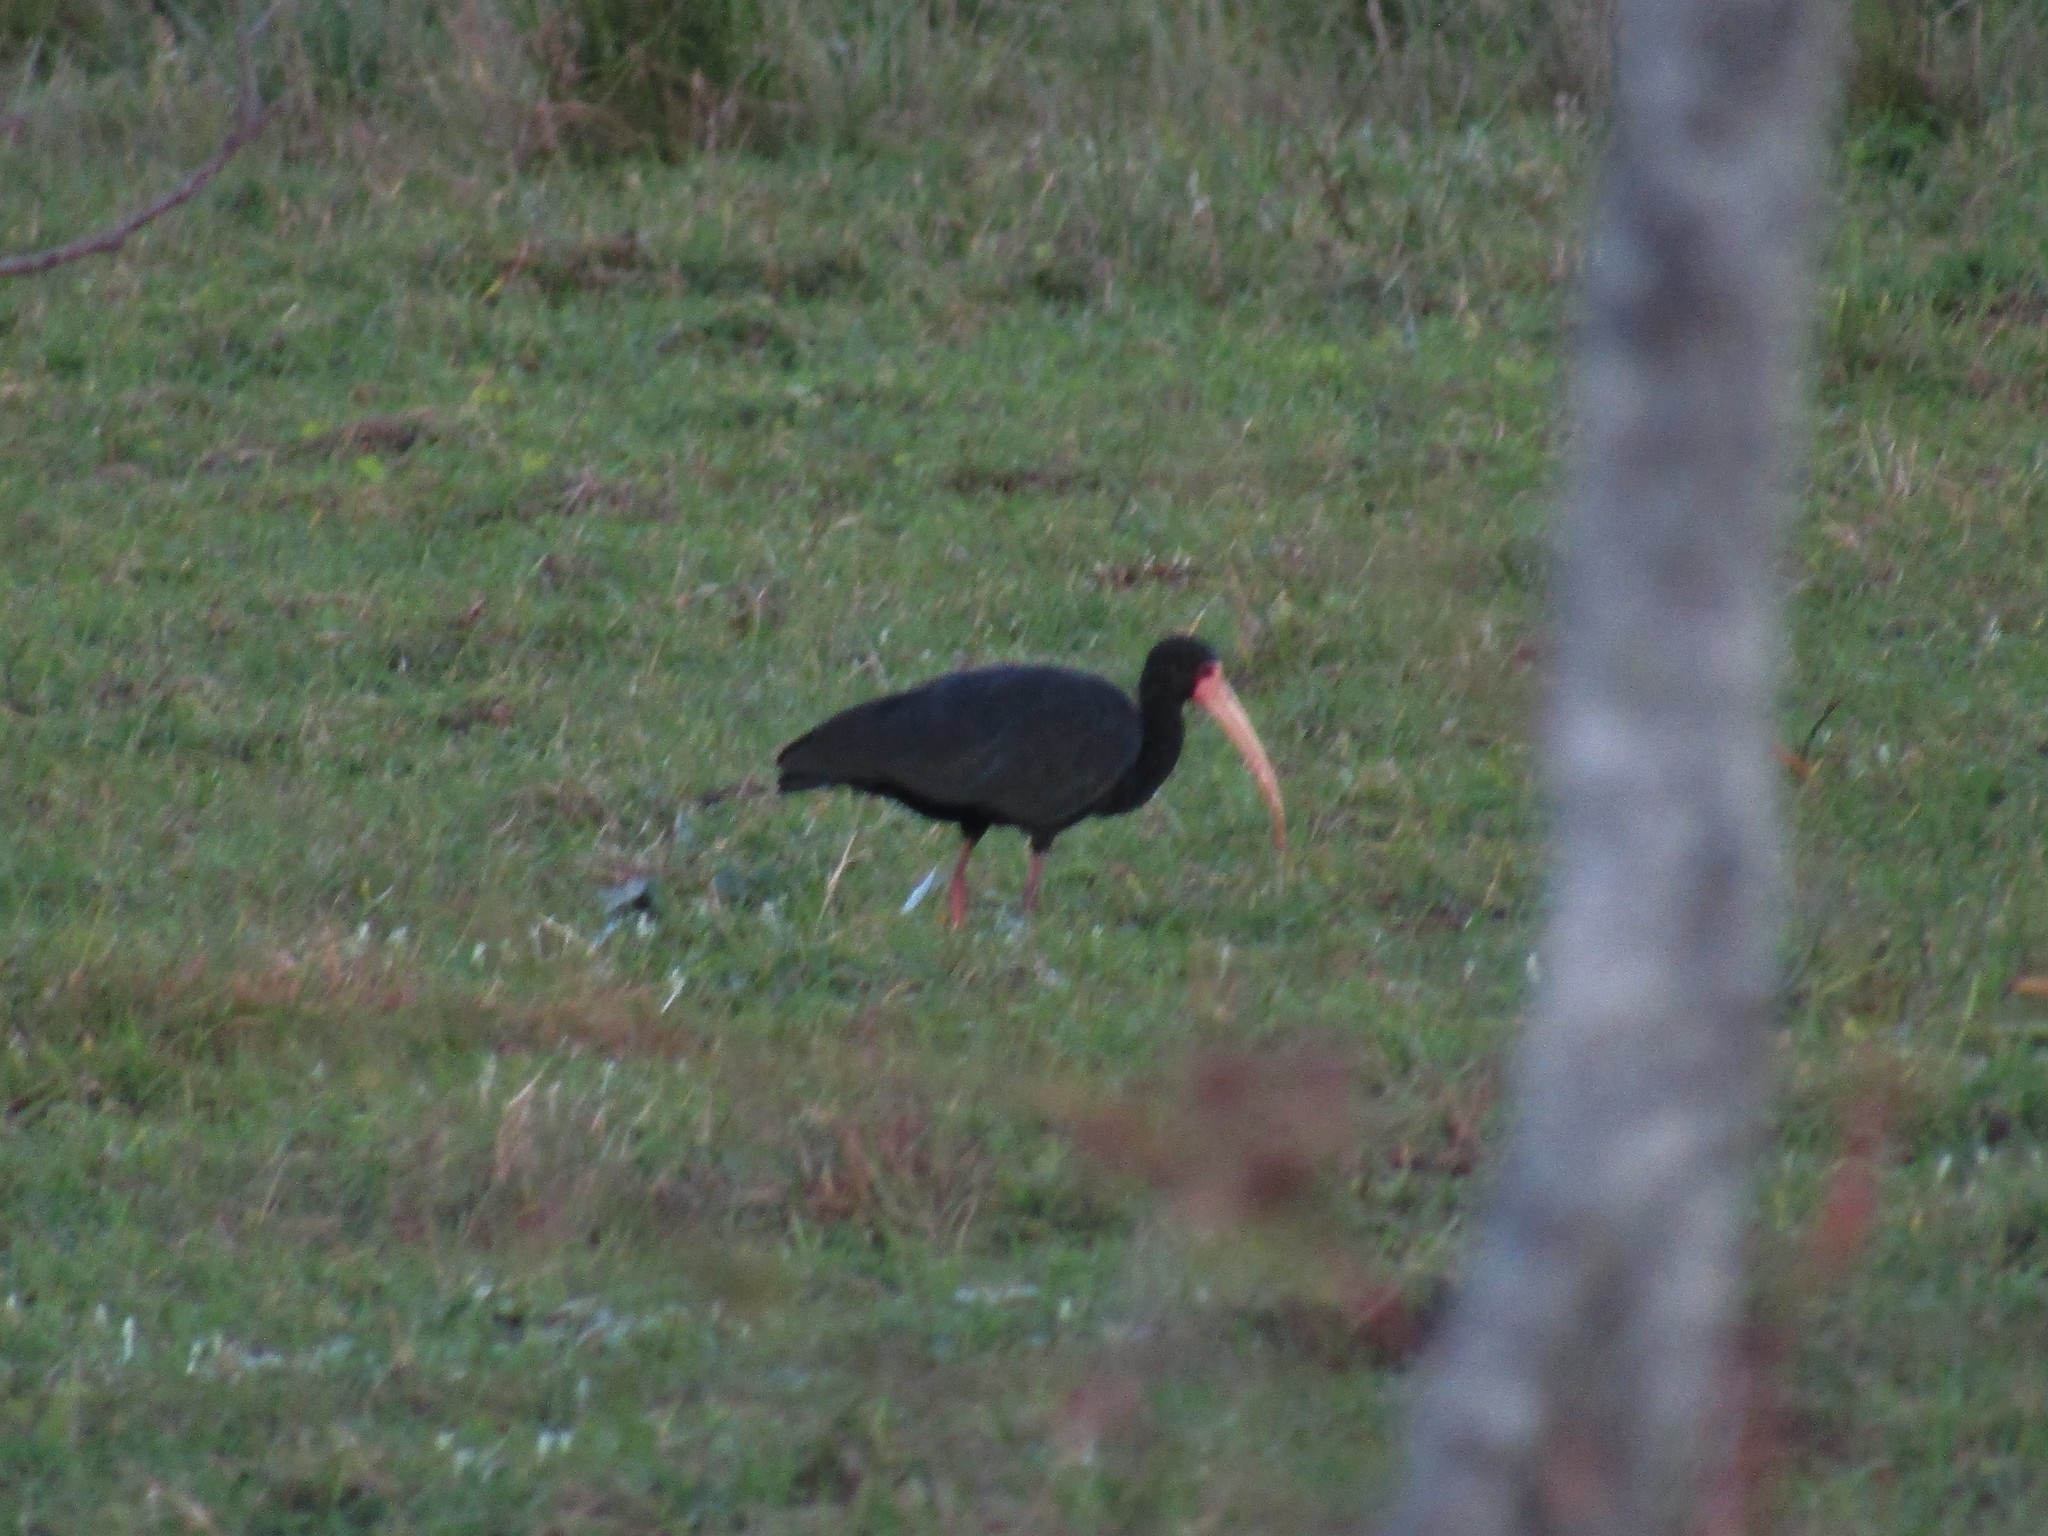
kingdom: Animalia
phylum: Chordata
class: Aves
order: Pelecaniformes
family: Threskiornithidae
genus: Phimosus
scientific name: Phimosus infuscatus
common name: Bare-faced ibis
